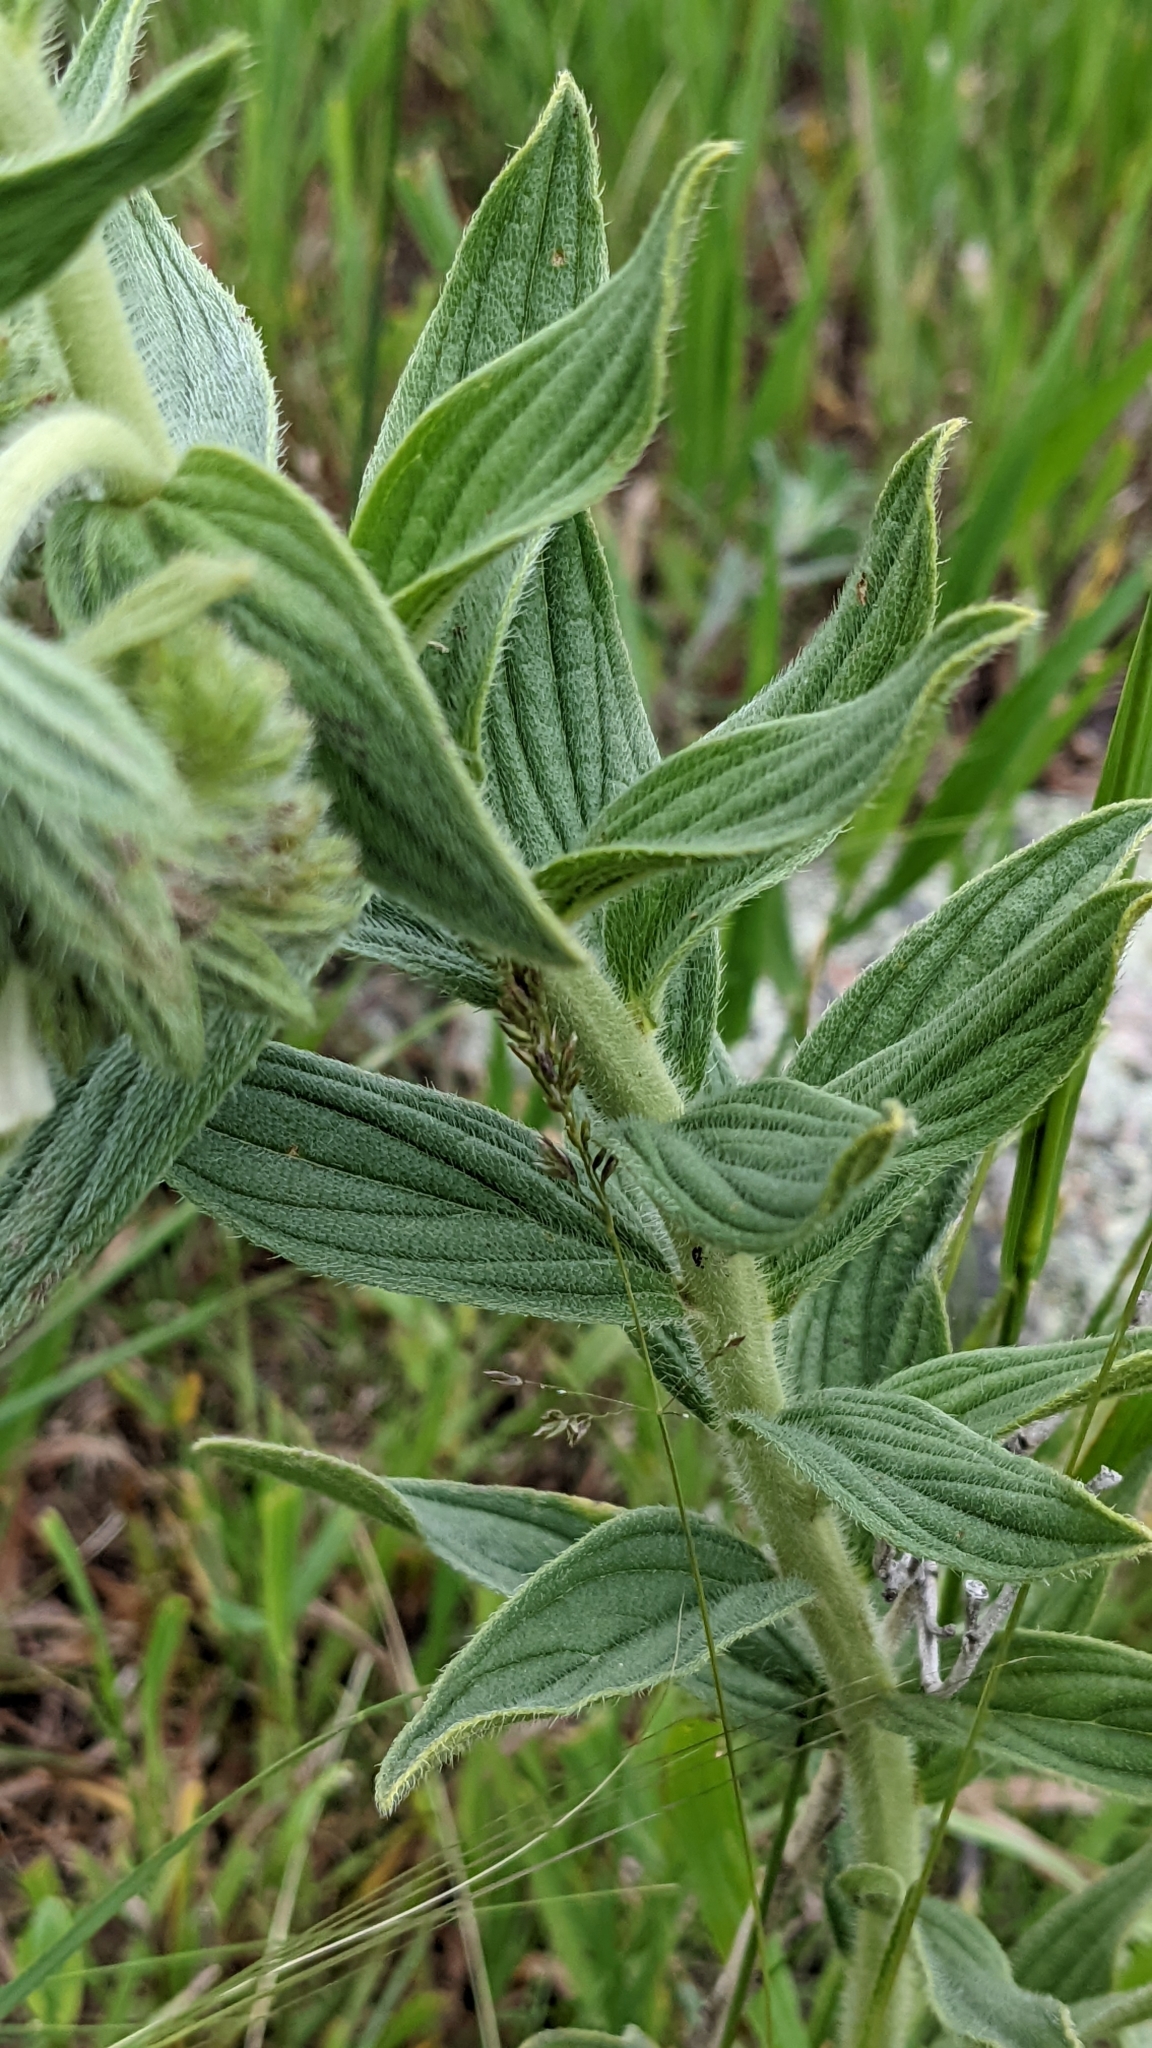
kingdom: Plantae
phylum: Tracheophyta
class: Magnoliopsida
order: Boraginales
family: Boraginaceae
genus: Lithospermum
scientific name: Lithospermum occidentale
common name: Western false gromwell
